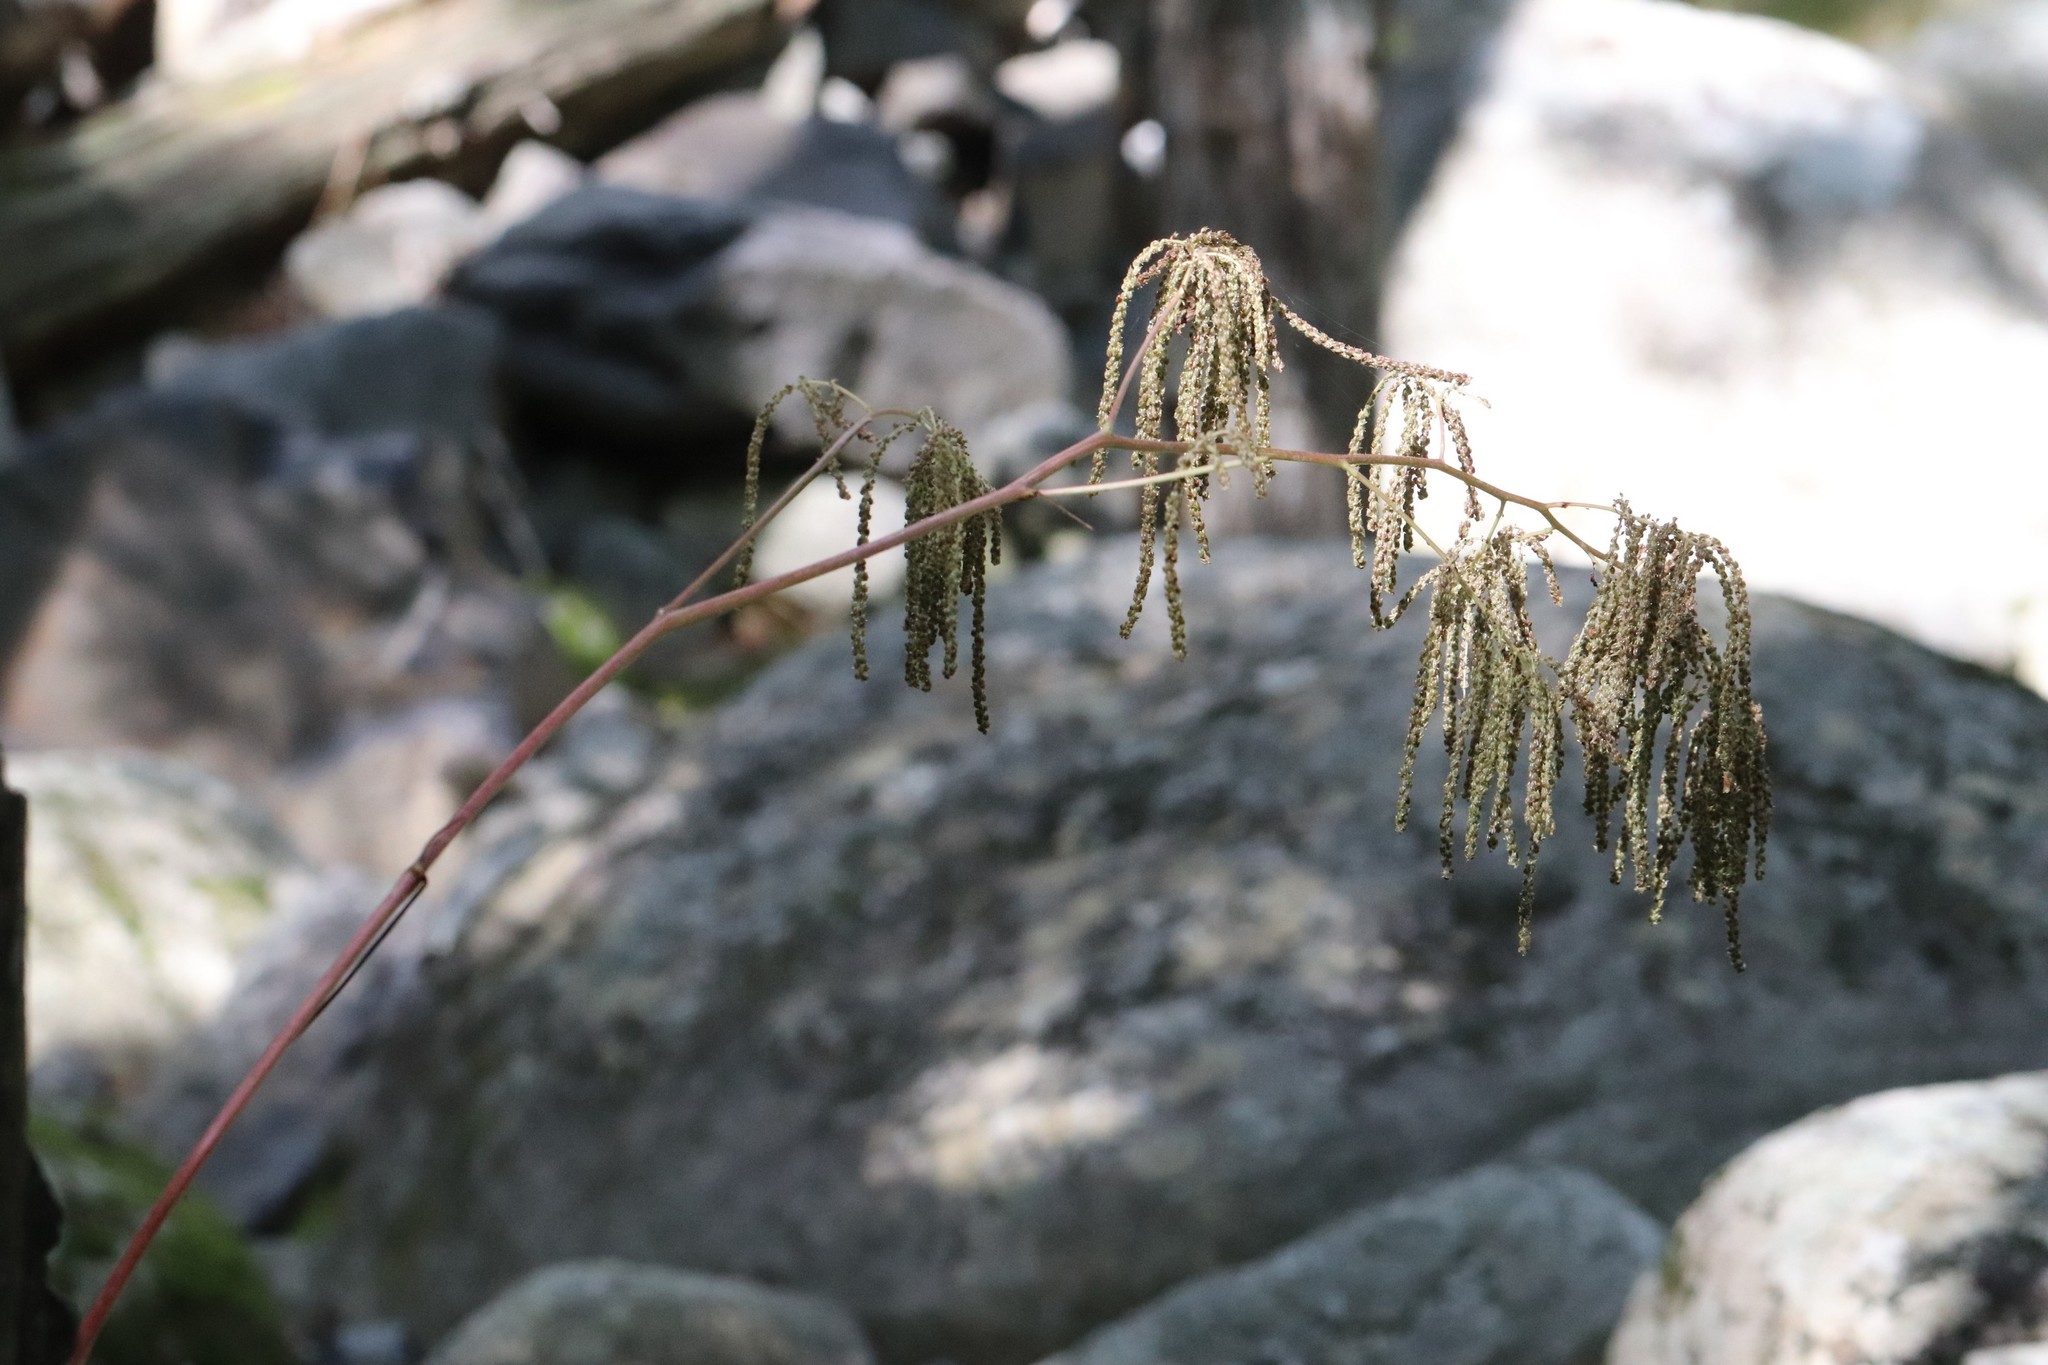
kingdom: Plantae
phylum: Tracheophyta
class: Magnoliopsida
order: Rosales
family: Rosaceae
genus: Aruncus
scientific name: Aruncus dioicus
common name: Buck's-beard
